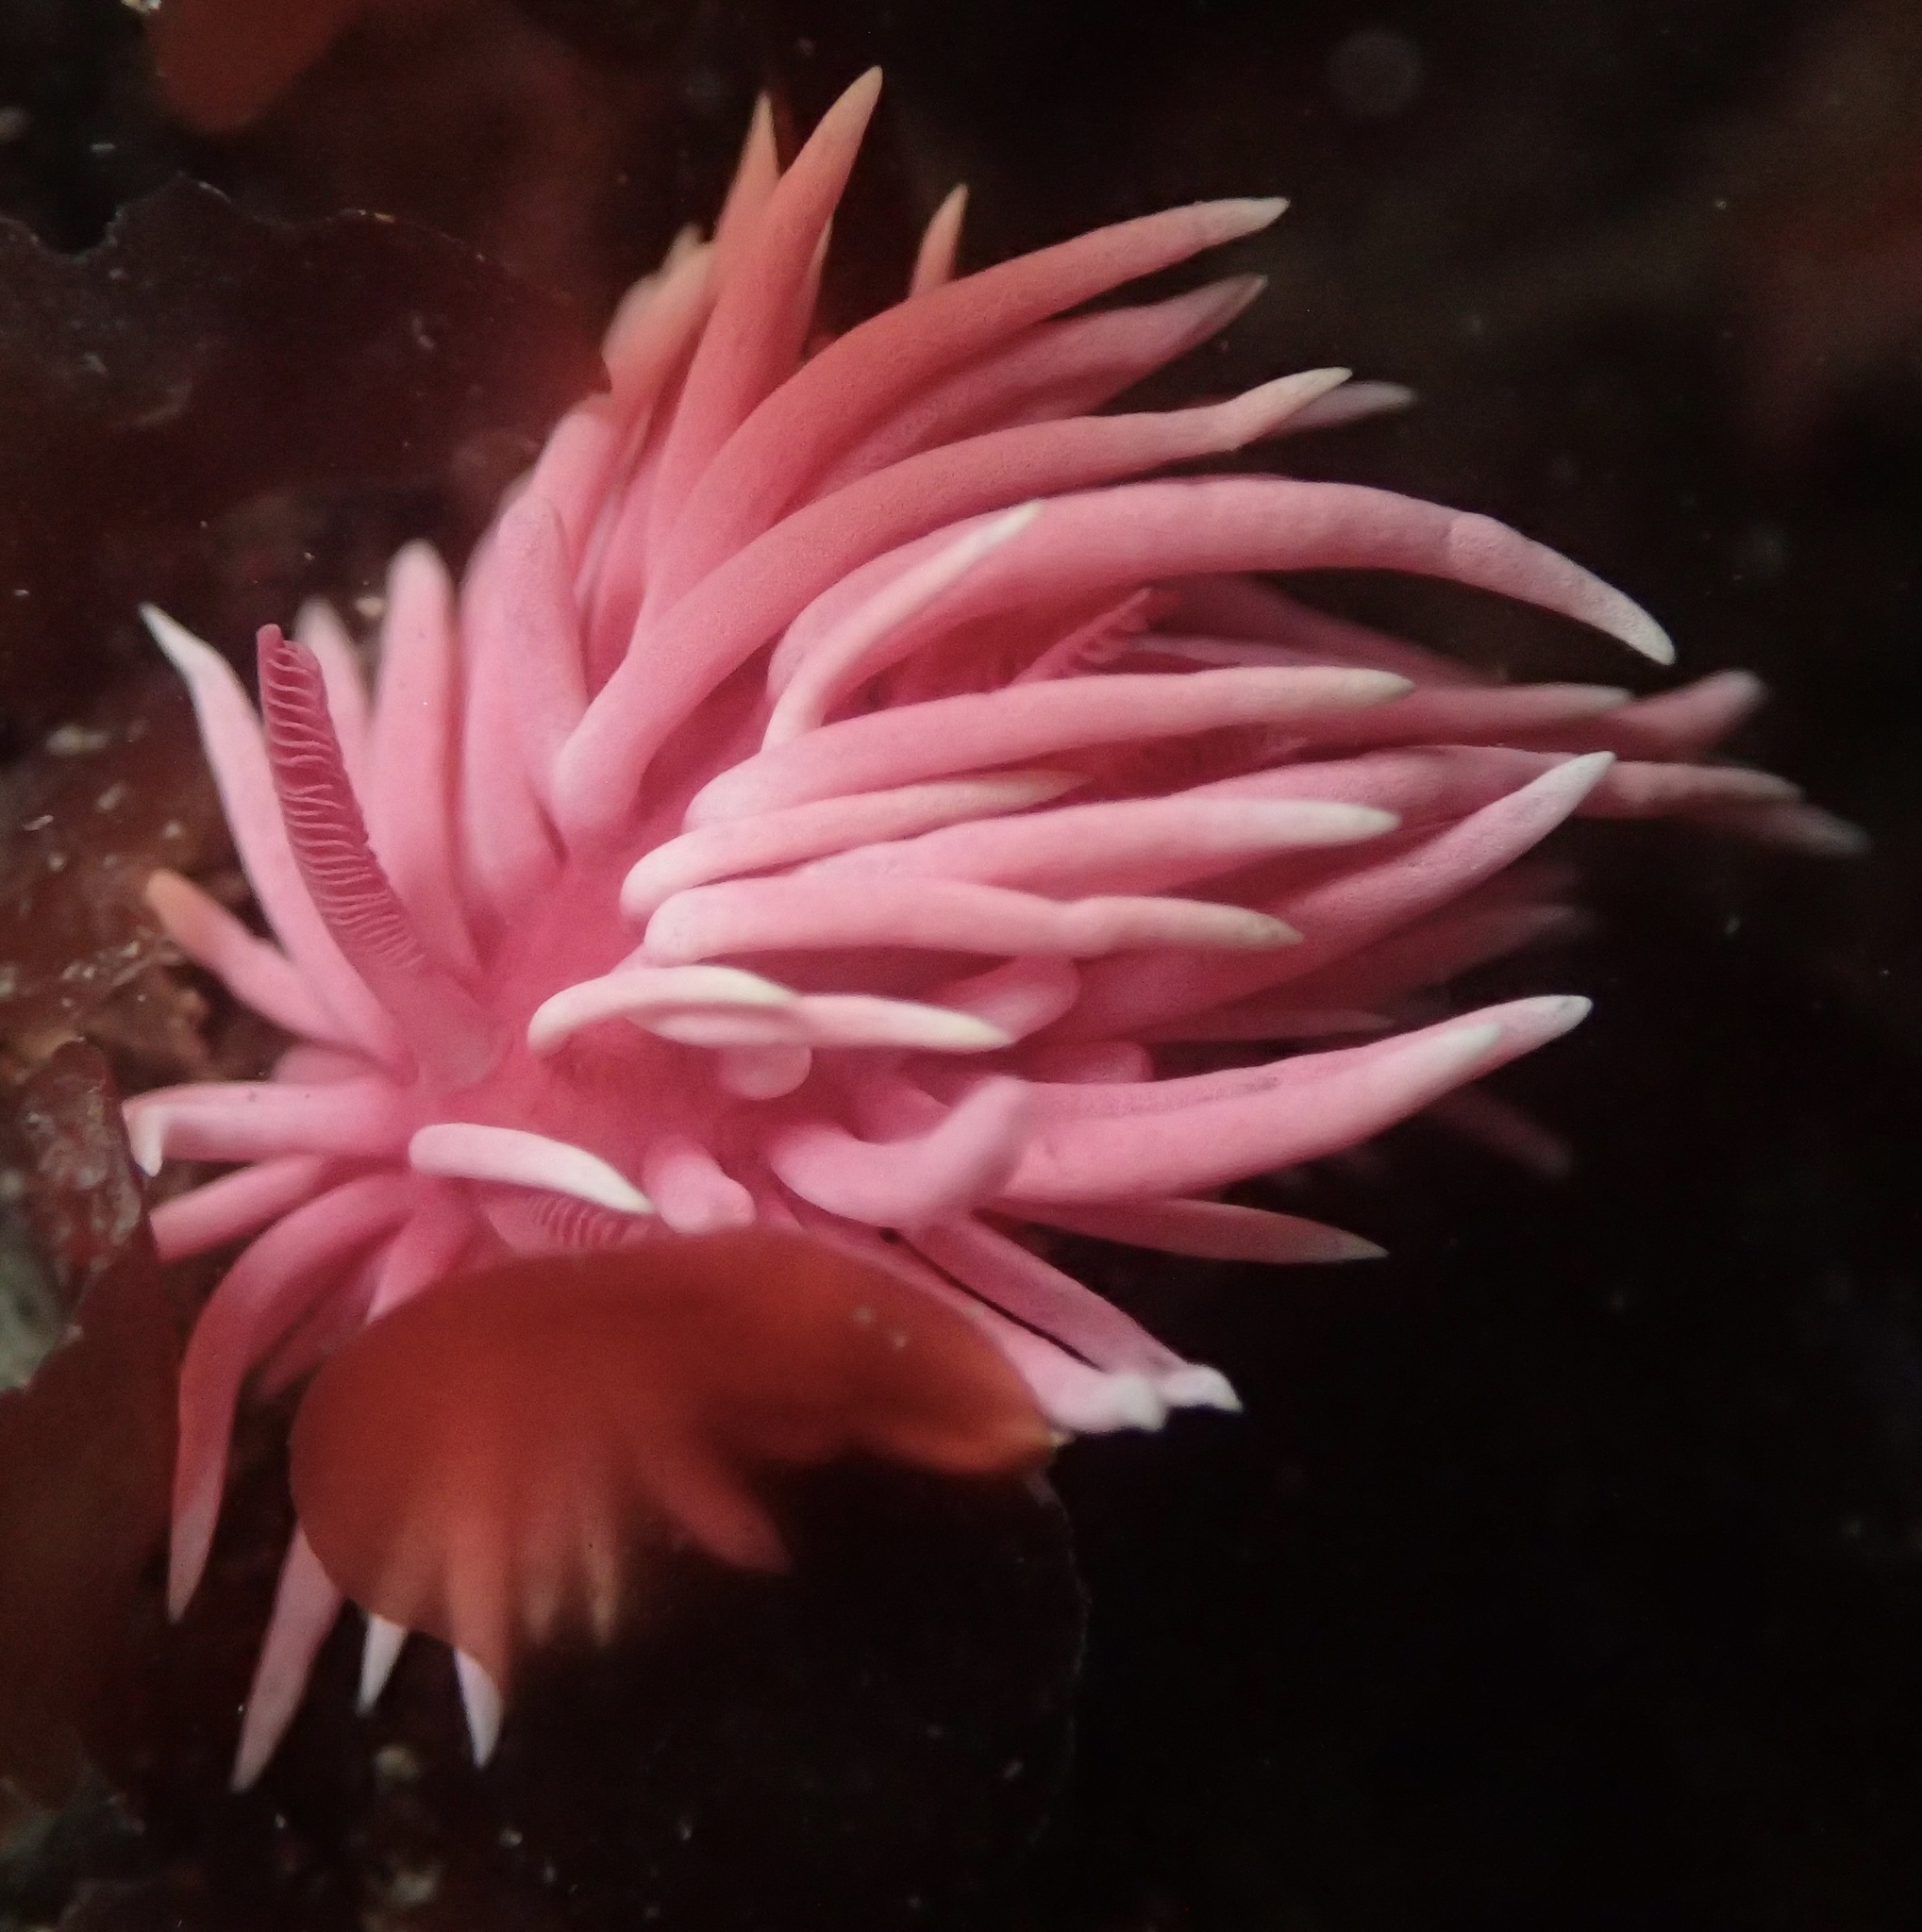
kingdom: Animalia
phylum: Mollusca
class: Gastropoda
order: Nudibranchia
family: Goniodorididae
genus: Okenia
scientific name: Okenia
